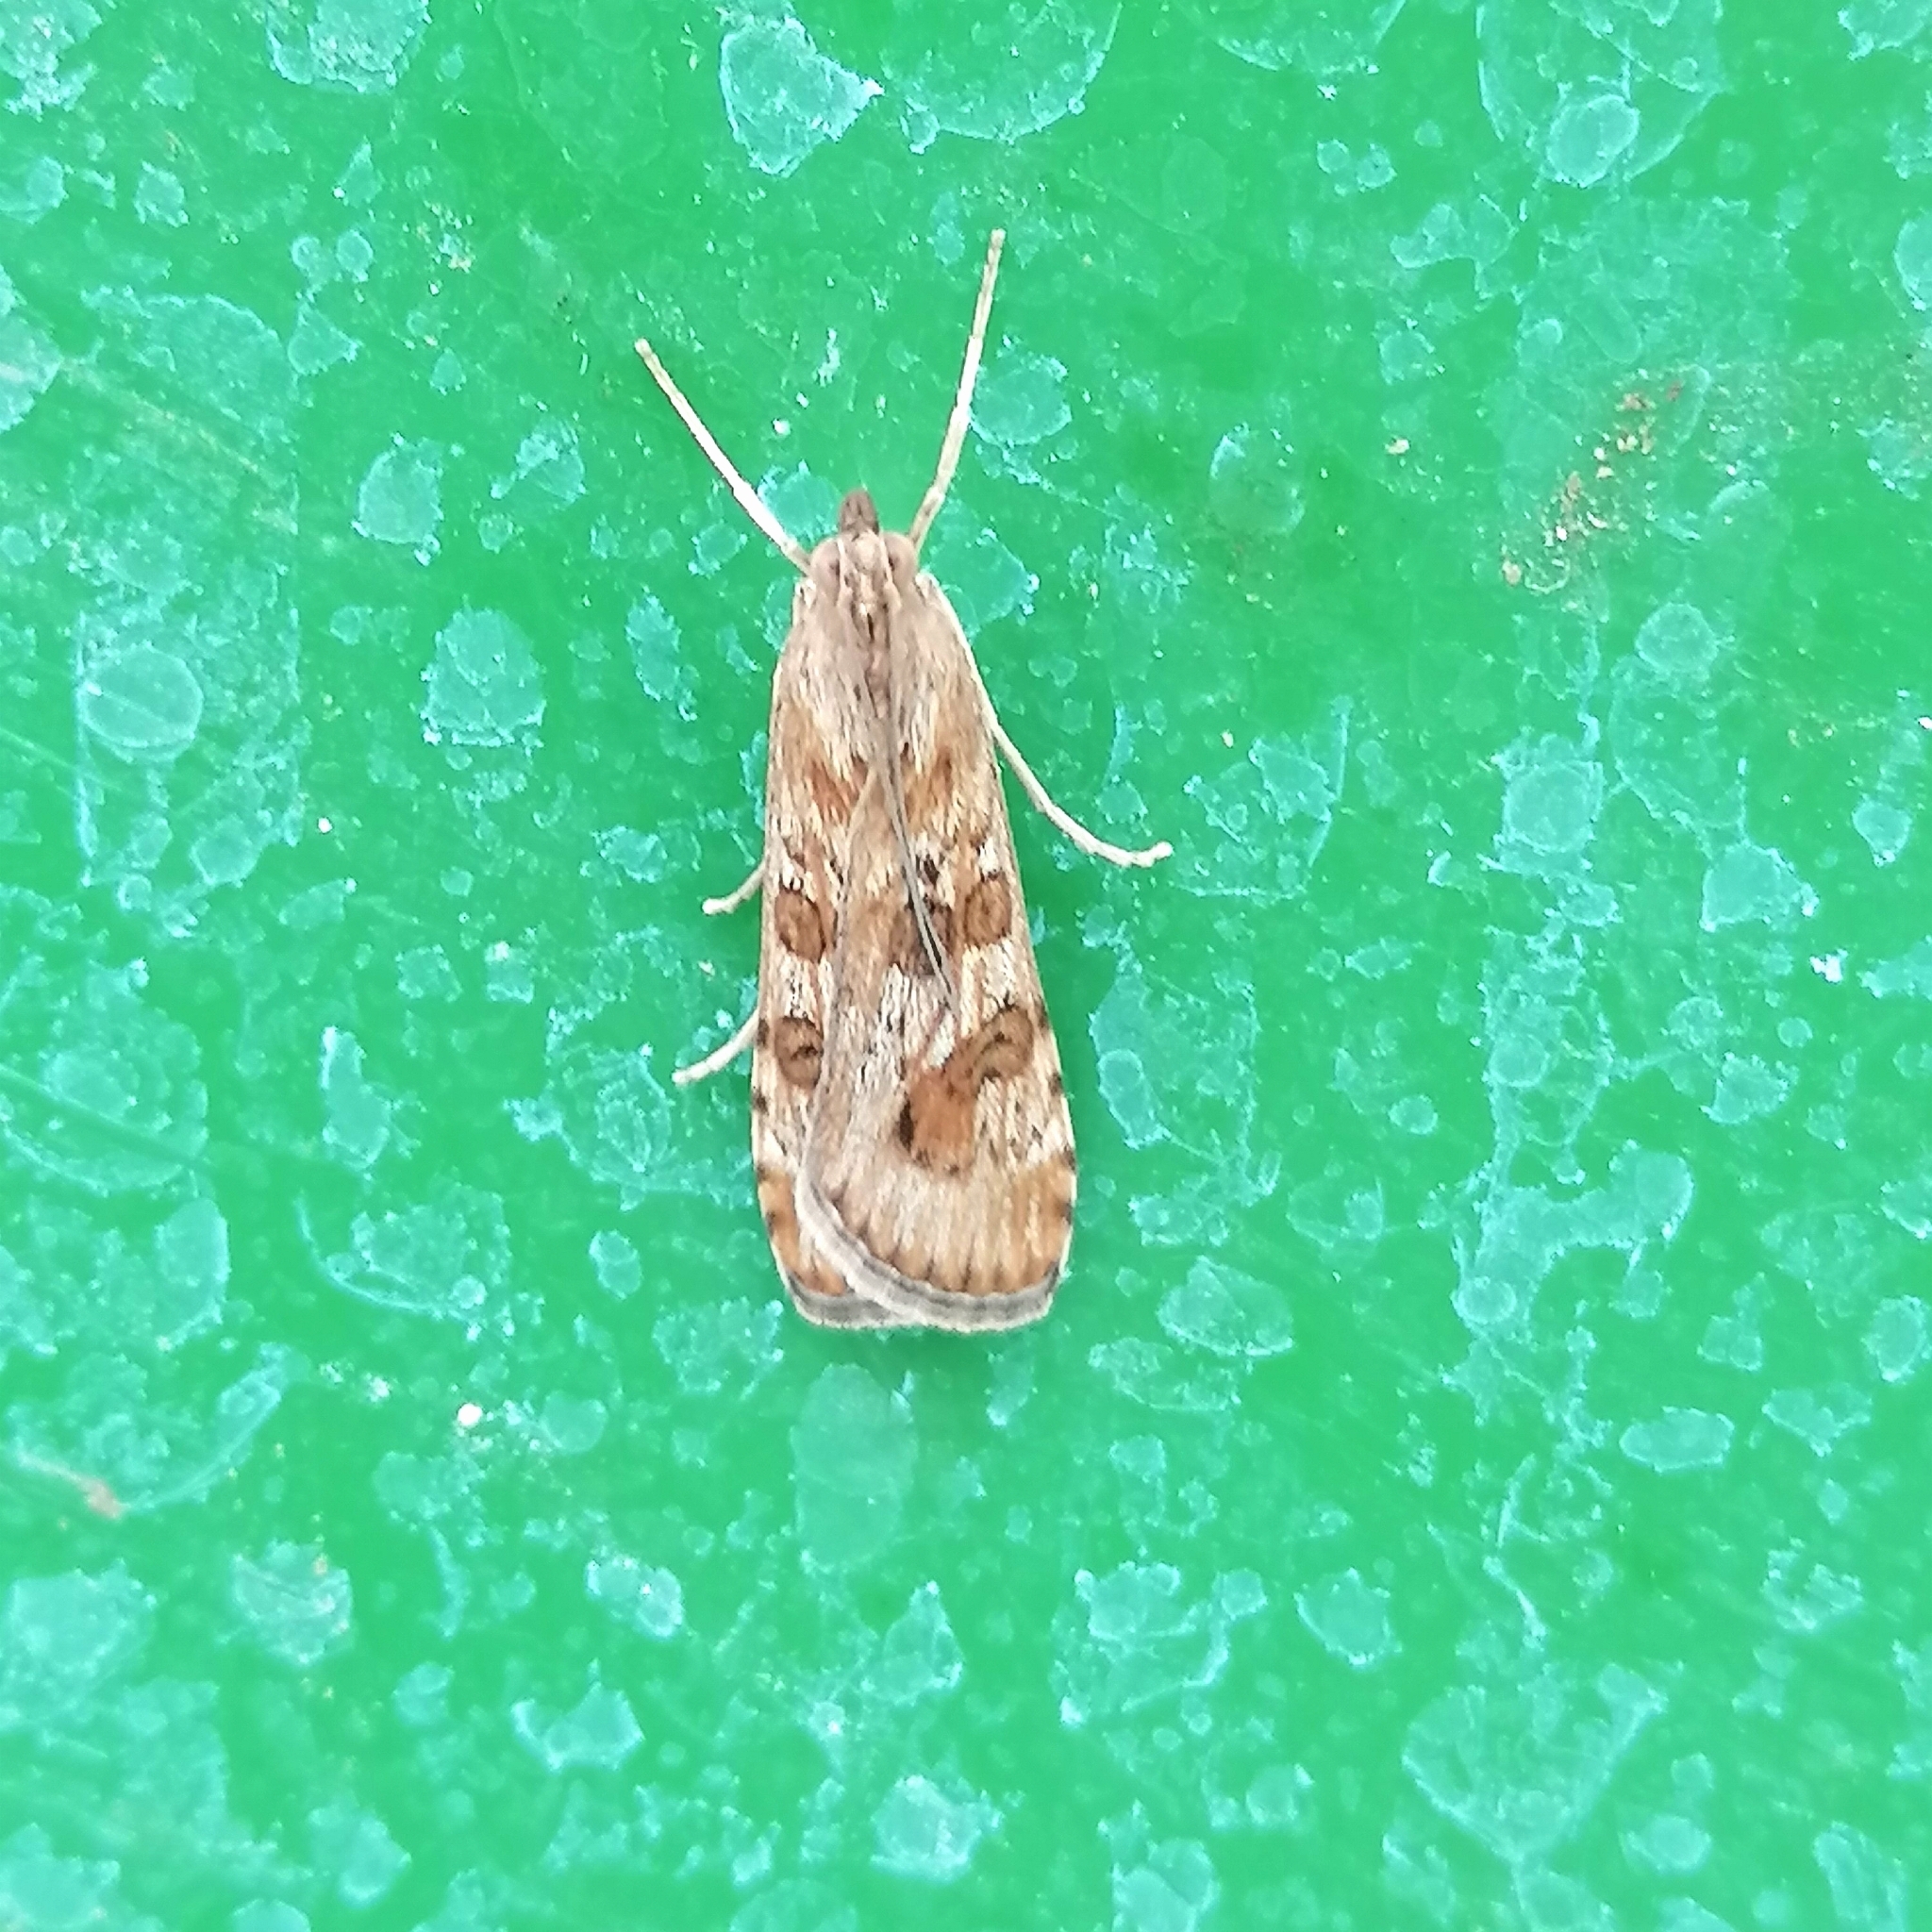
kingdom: Animalia
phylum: Arthropoda
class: Insecta
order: Lepidoptera
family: Crambidae
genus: Nomophila
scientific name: Nomophila noctuella
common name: Rush veneer
